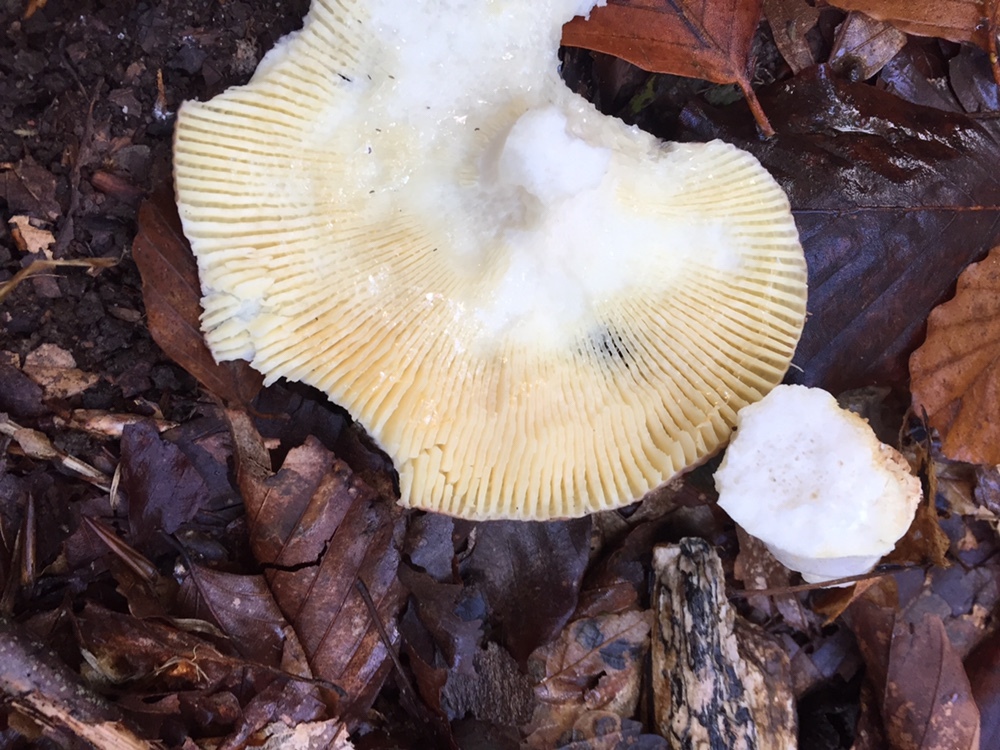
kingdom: Fungi
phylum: Basidiomycota
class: Agaricomycetes
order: Russulales
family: Russulaceae
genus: Russula
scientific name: Russula
